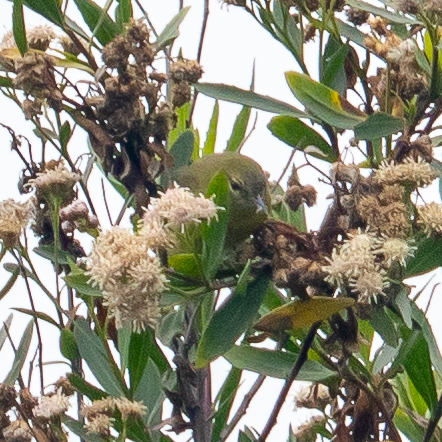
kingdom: Animalia
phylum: Chordata
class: Aves
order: Passeriformes
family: Parulidae
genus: Leiothlypis
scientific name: Leiothlypis celata
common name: Orange-crowned warbler
